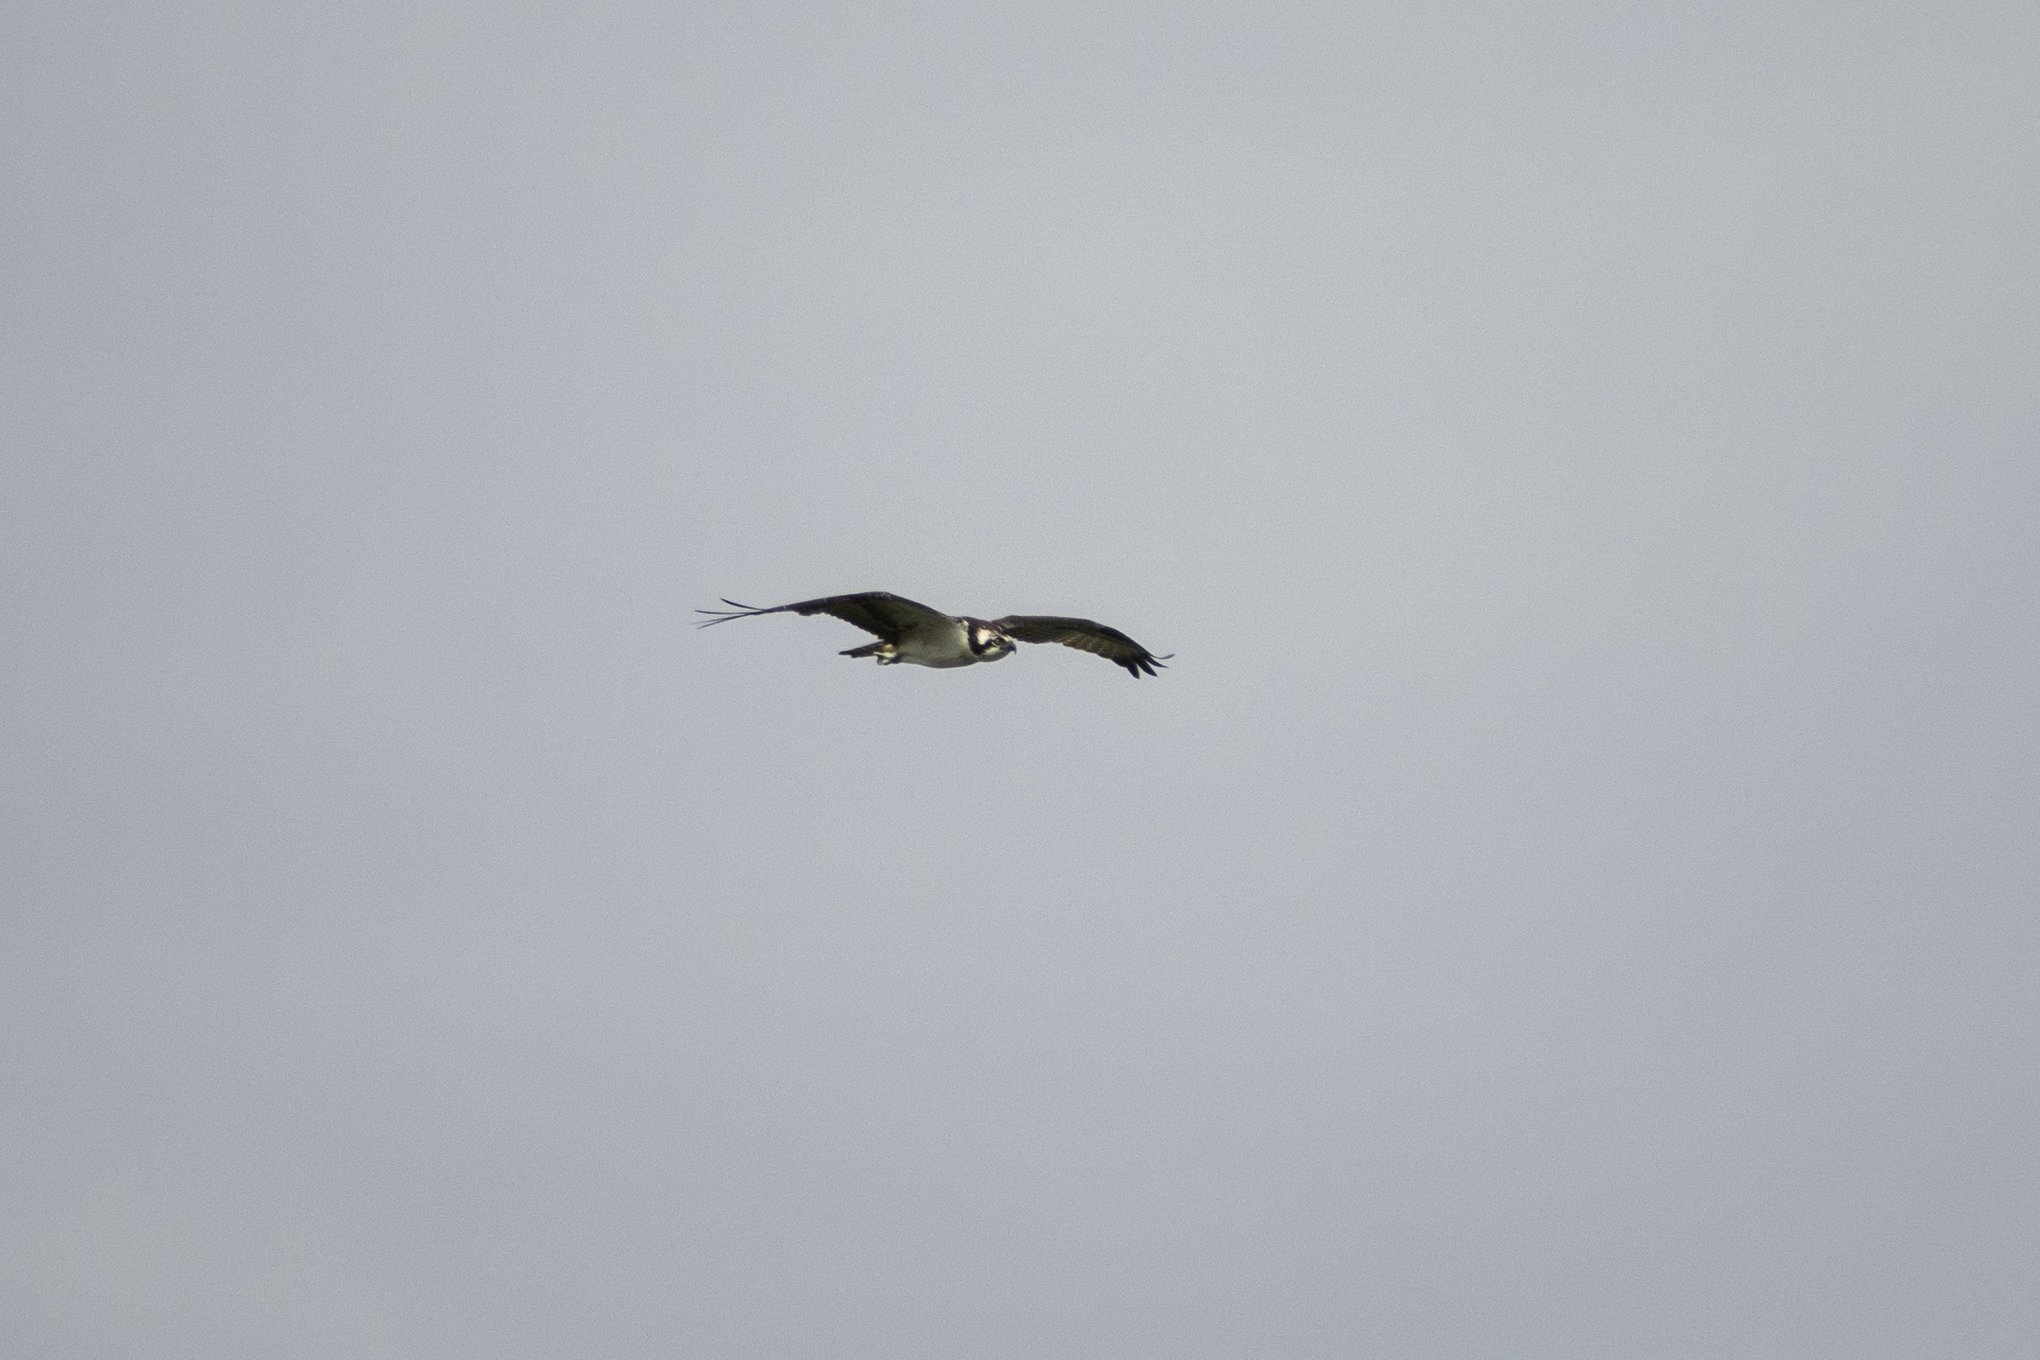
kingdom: Animalia
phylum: Chordata
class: Aves
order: Accipitriformes
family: Pandionidae
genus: Pandion
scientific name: Pandion haliaetus
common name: Osprey
